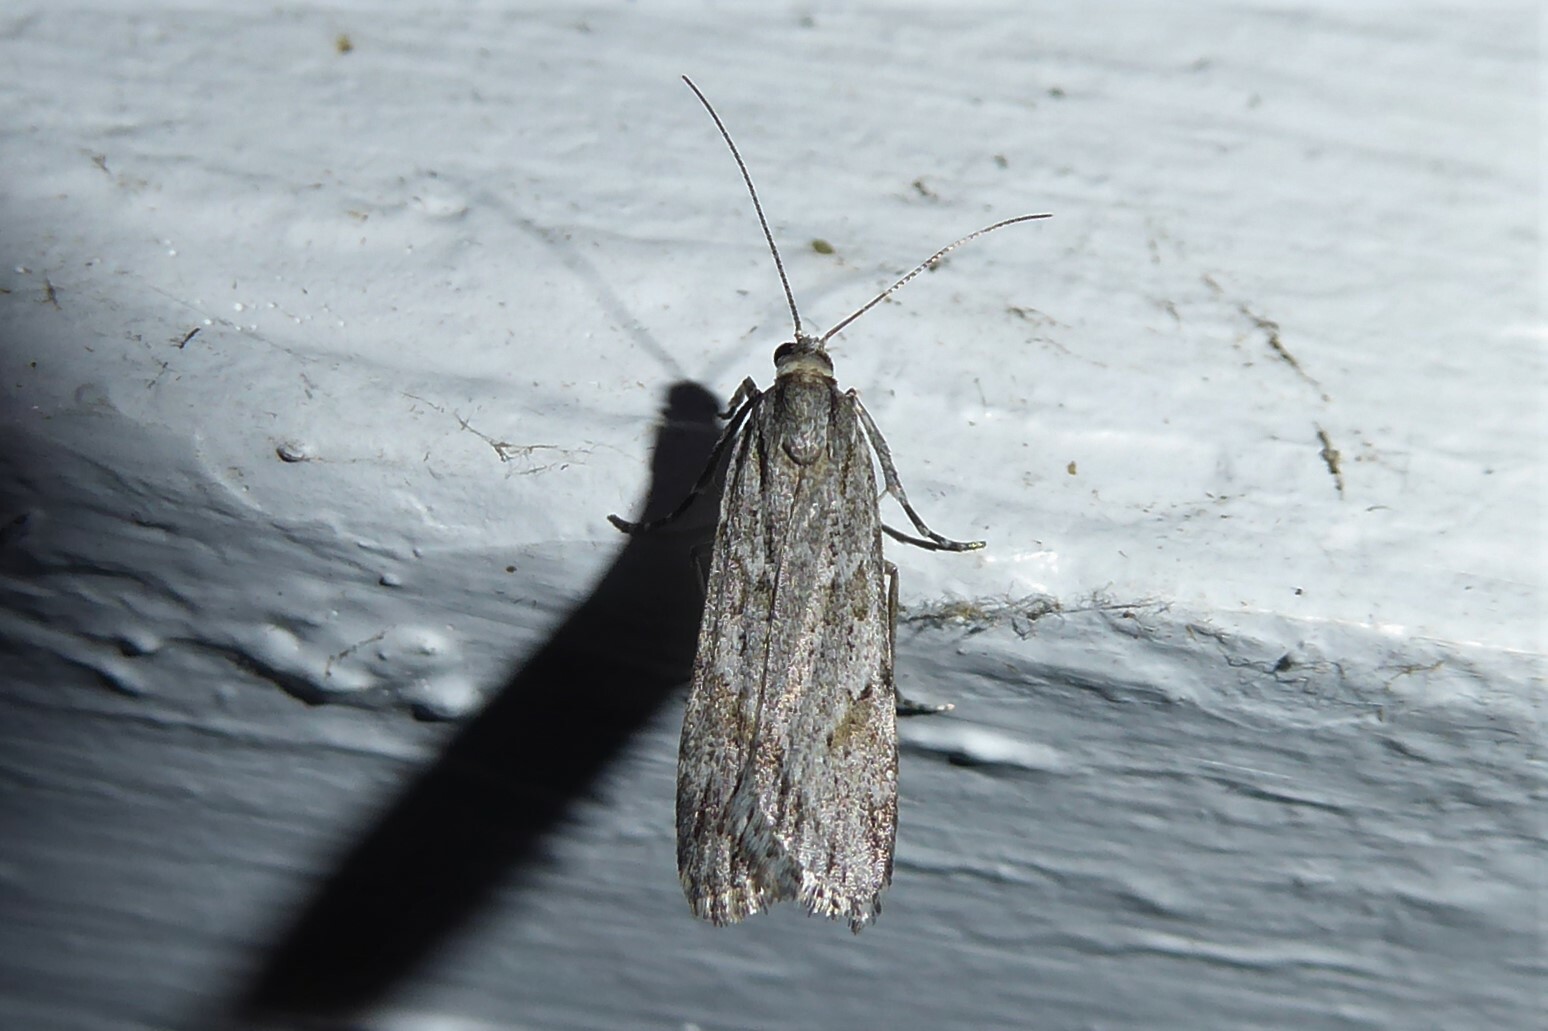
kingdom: Animalia
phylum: Arthropoda
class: Insecta
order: Lepidoptera
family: Crambidae
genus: Scoparia
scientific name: Scoparia chalicodes
